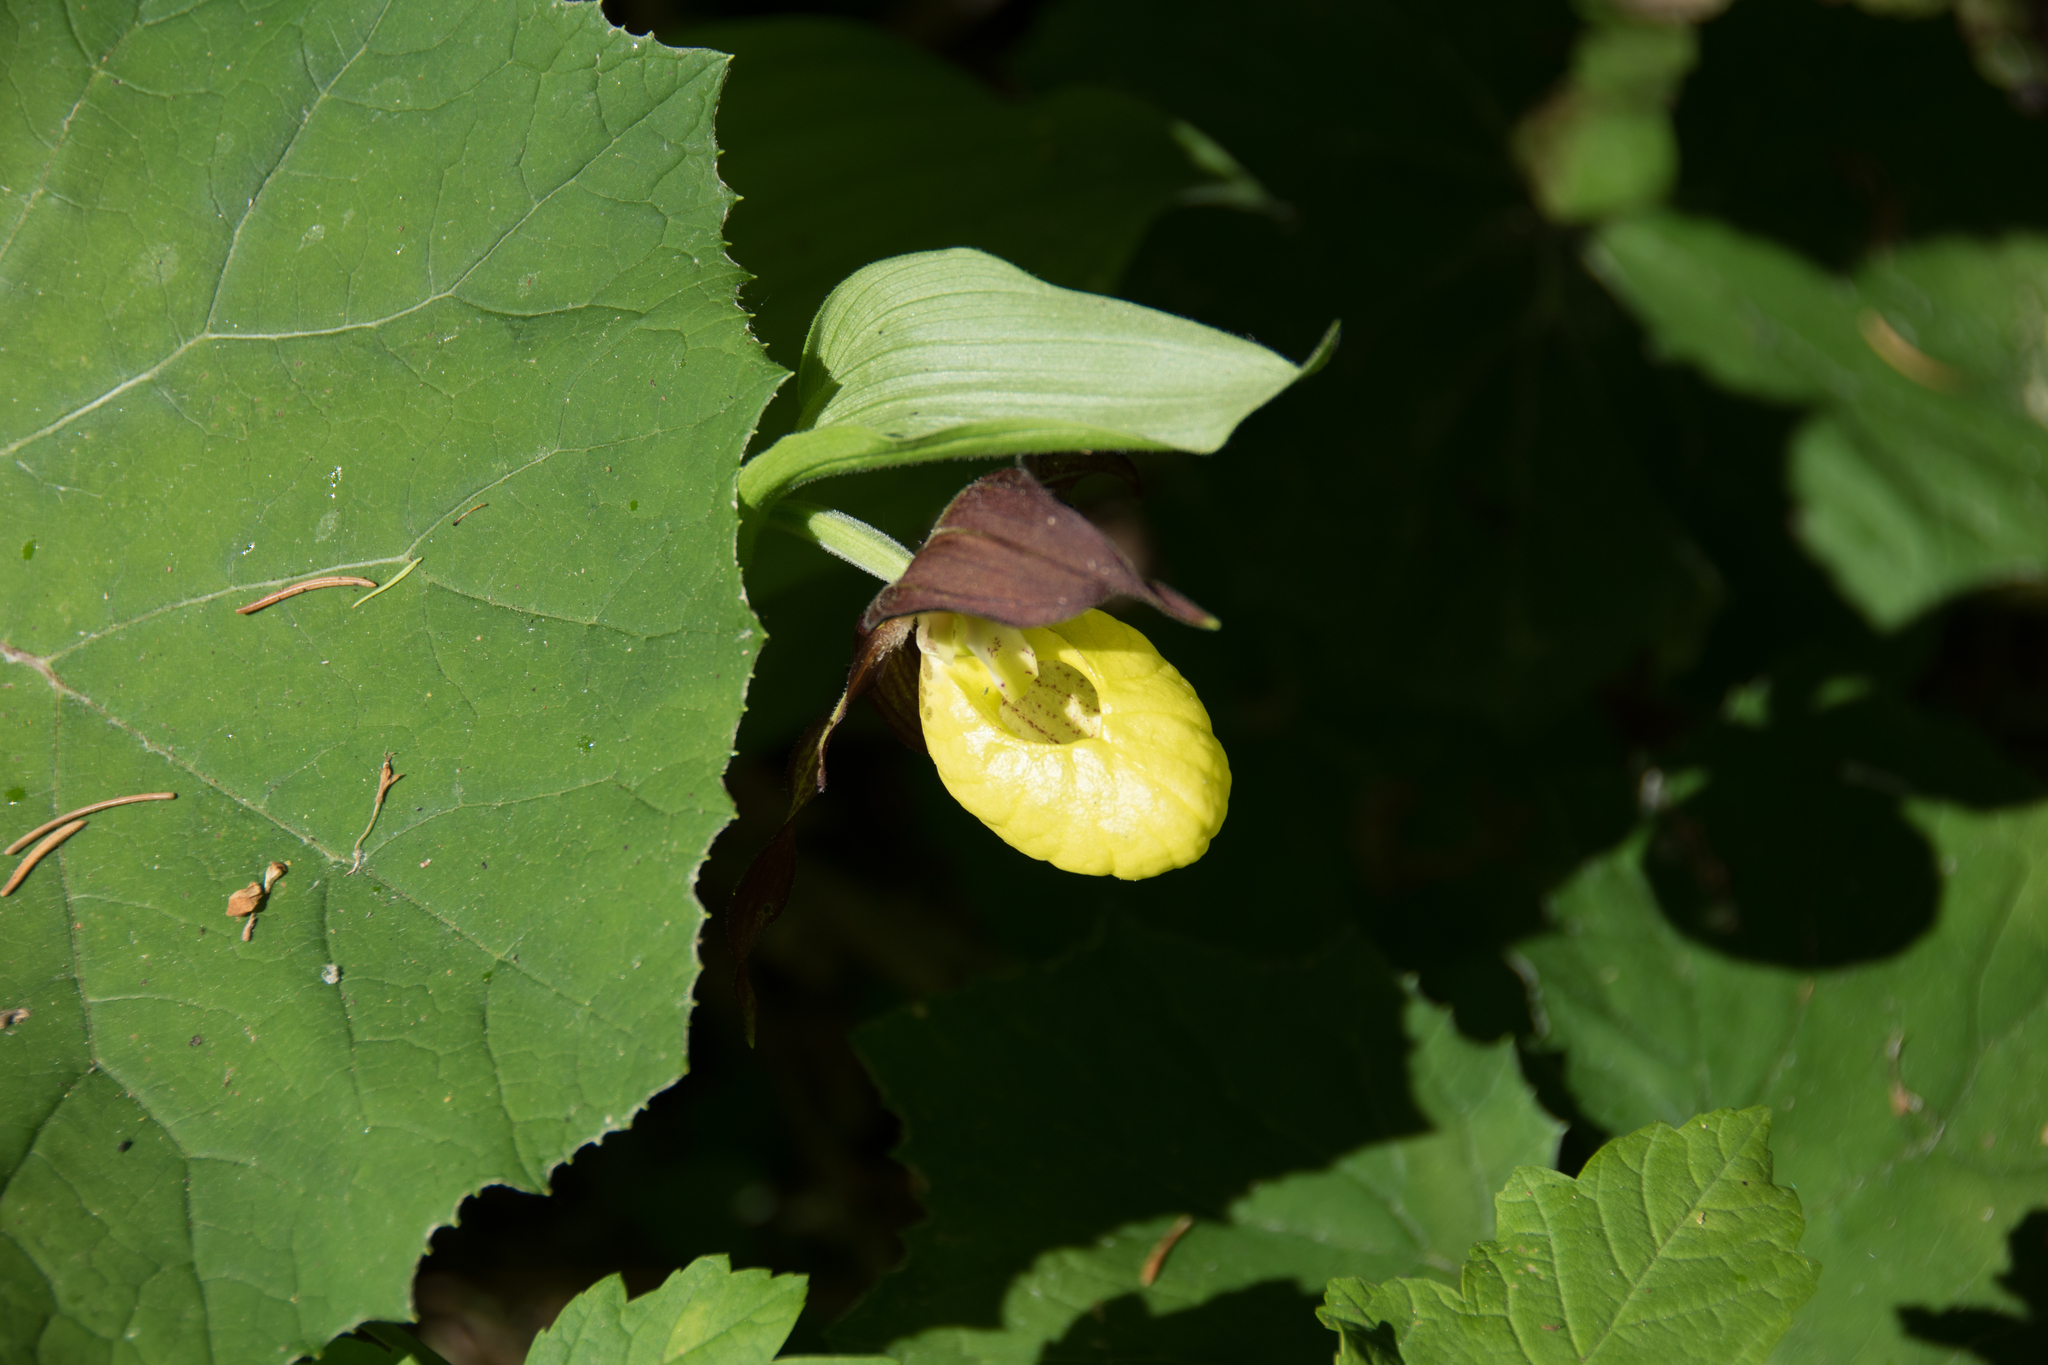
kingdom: Plantae
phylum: Tracheophyta
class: Liliopsida
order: Asparagales
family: Orchidaceae
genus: Cypripedium
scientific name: Cypripedium calceolus
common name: Lady's-slipper
